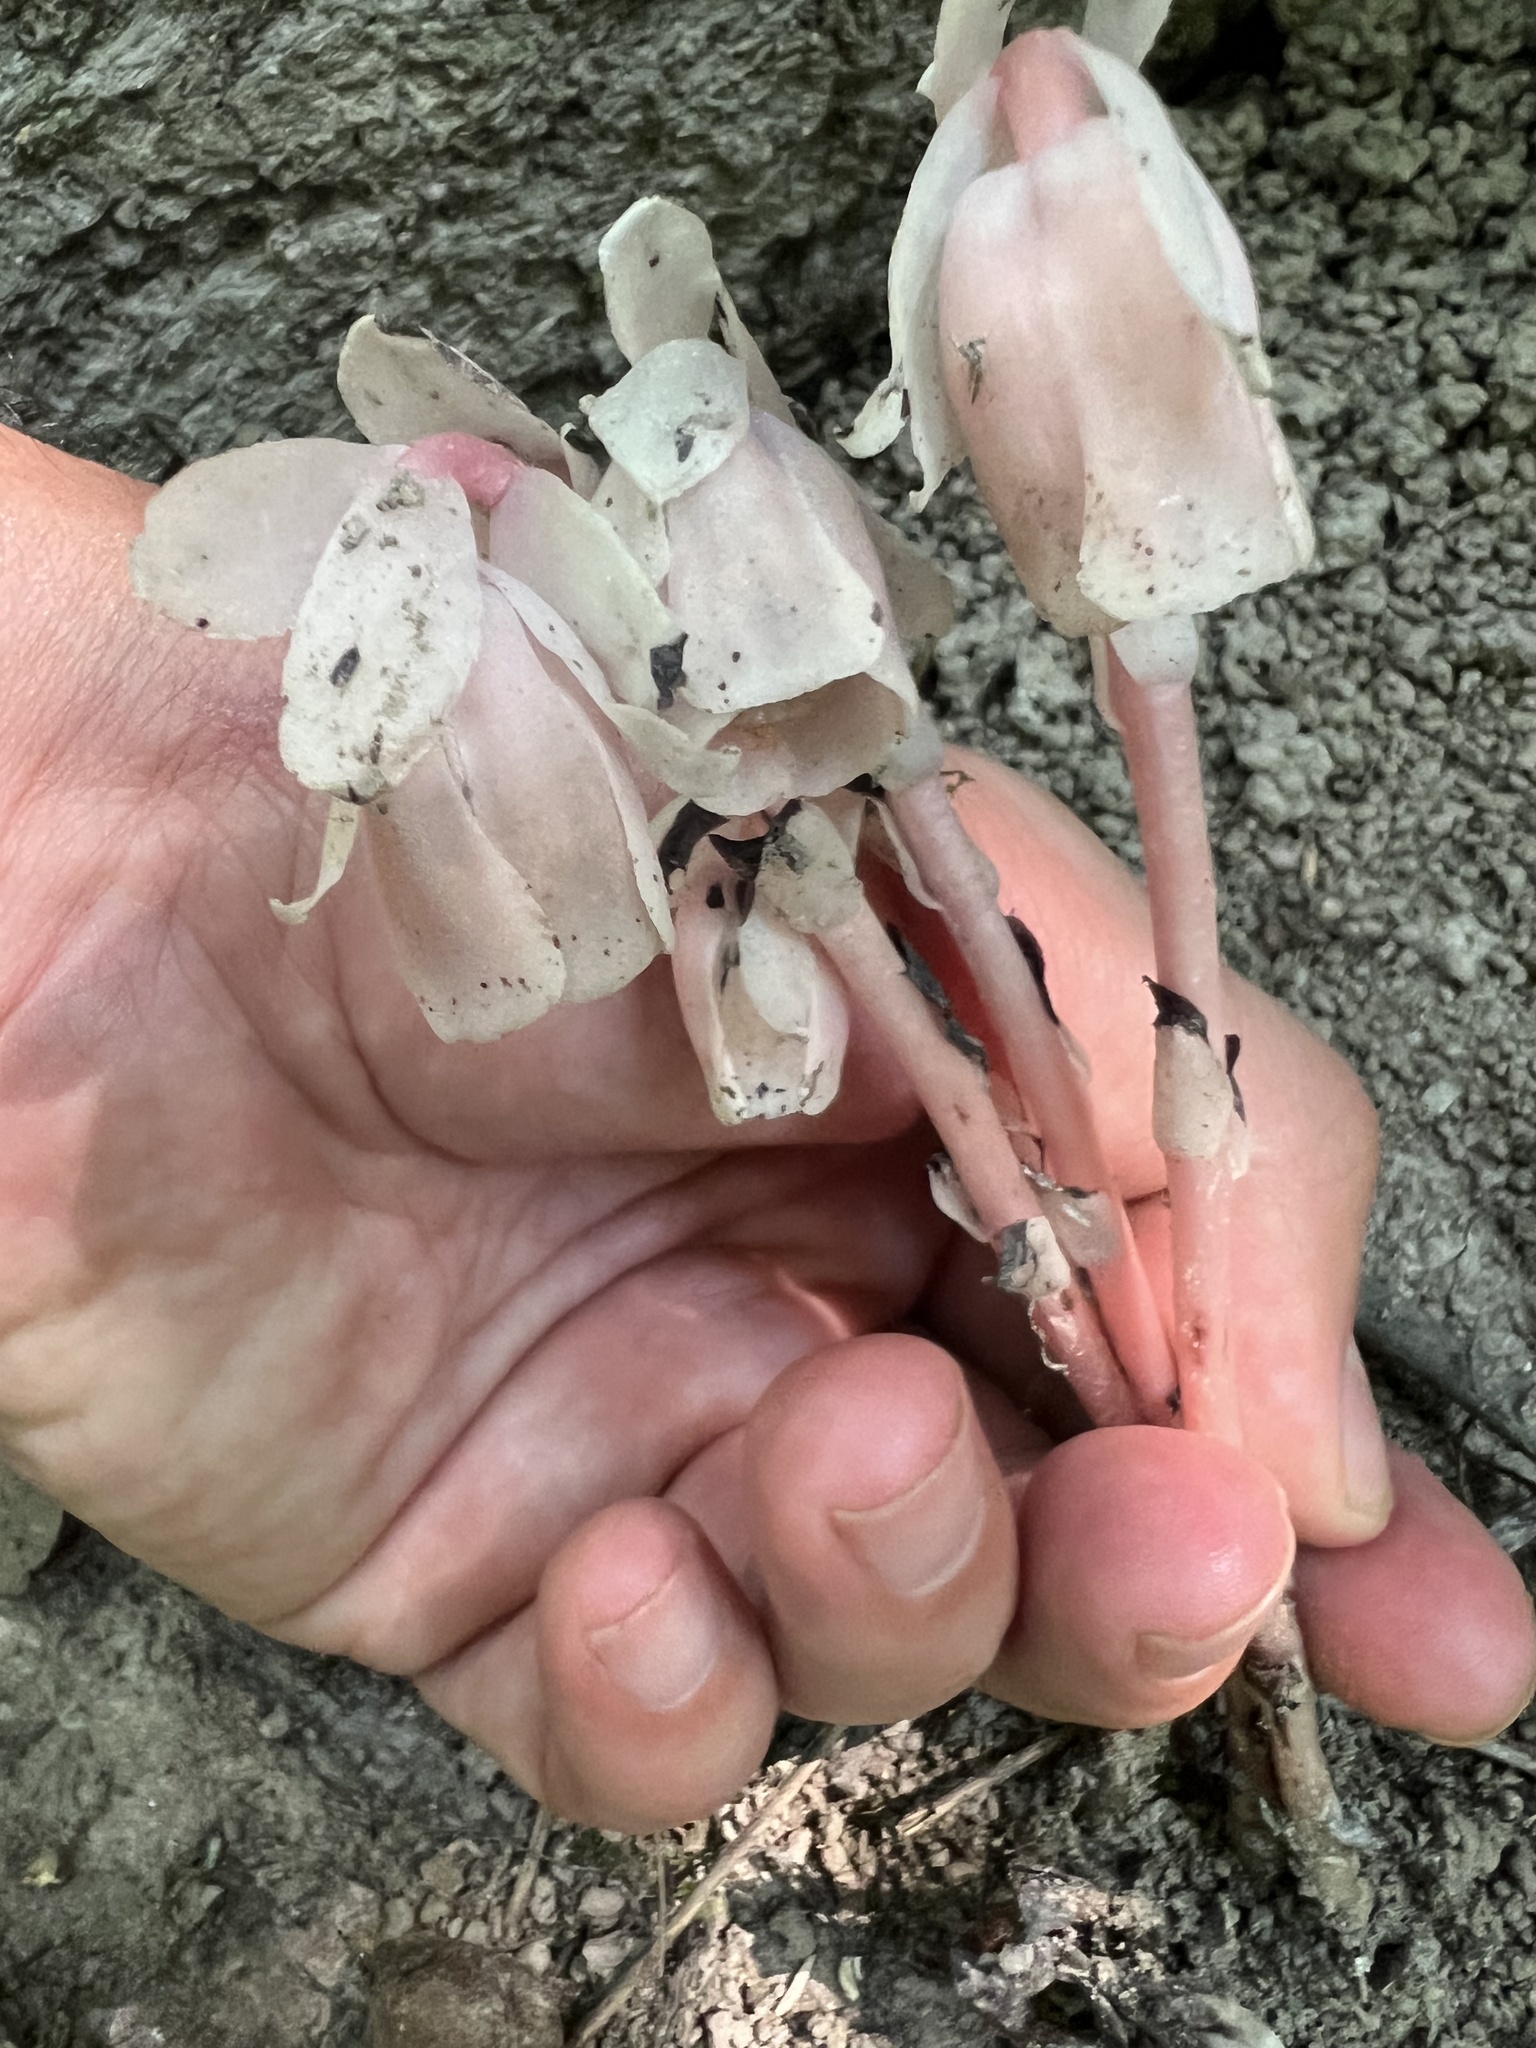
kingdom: Plantae
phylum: Tracheophyta
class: Magnoliopsida
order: Ericales
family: Ericaceae
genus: Monotropa
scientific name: Monotropa uniflora
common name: Convulsion root
